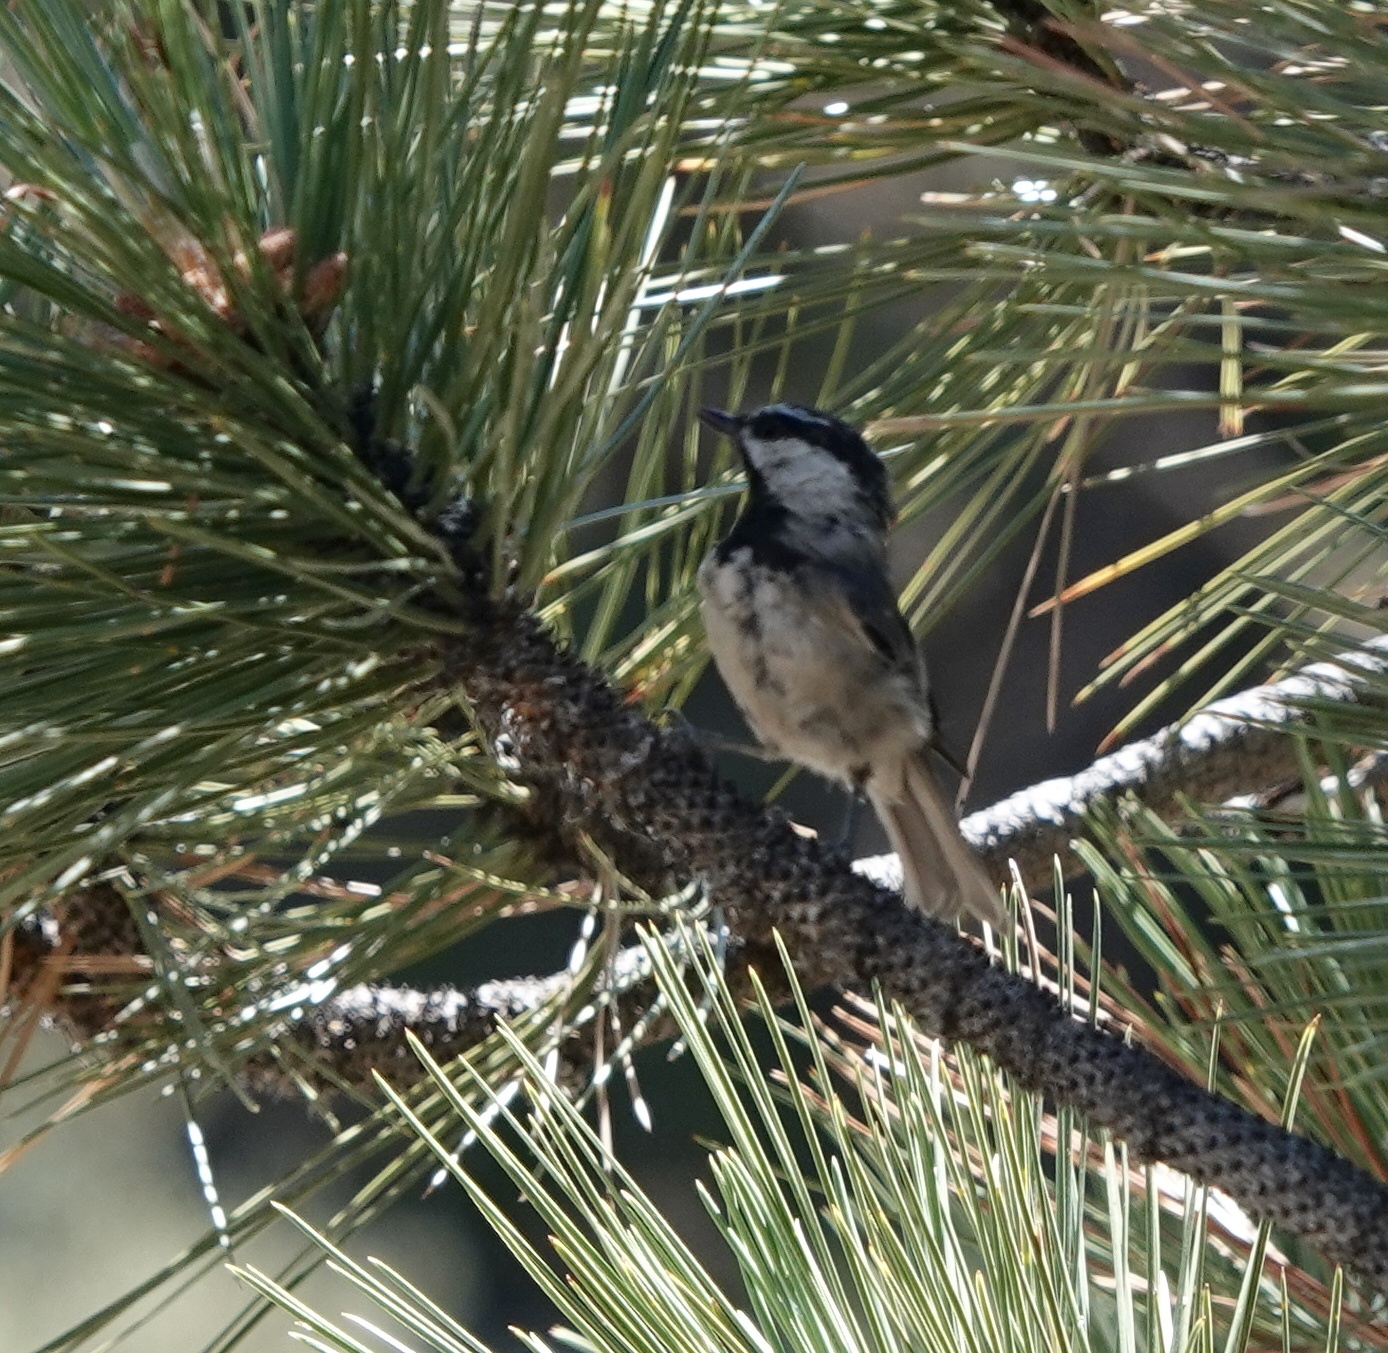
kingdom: Animalia
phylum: Chordata
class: Aves
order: Passeriformes
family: Paridae
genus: Poecile
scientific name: Poecile gambeli
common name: Mountain chickadee
